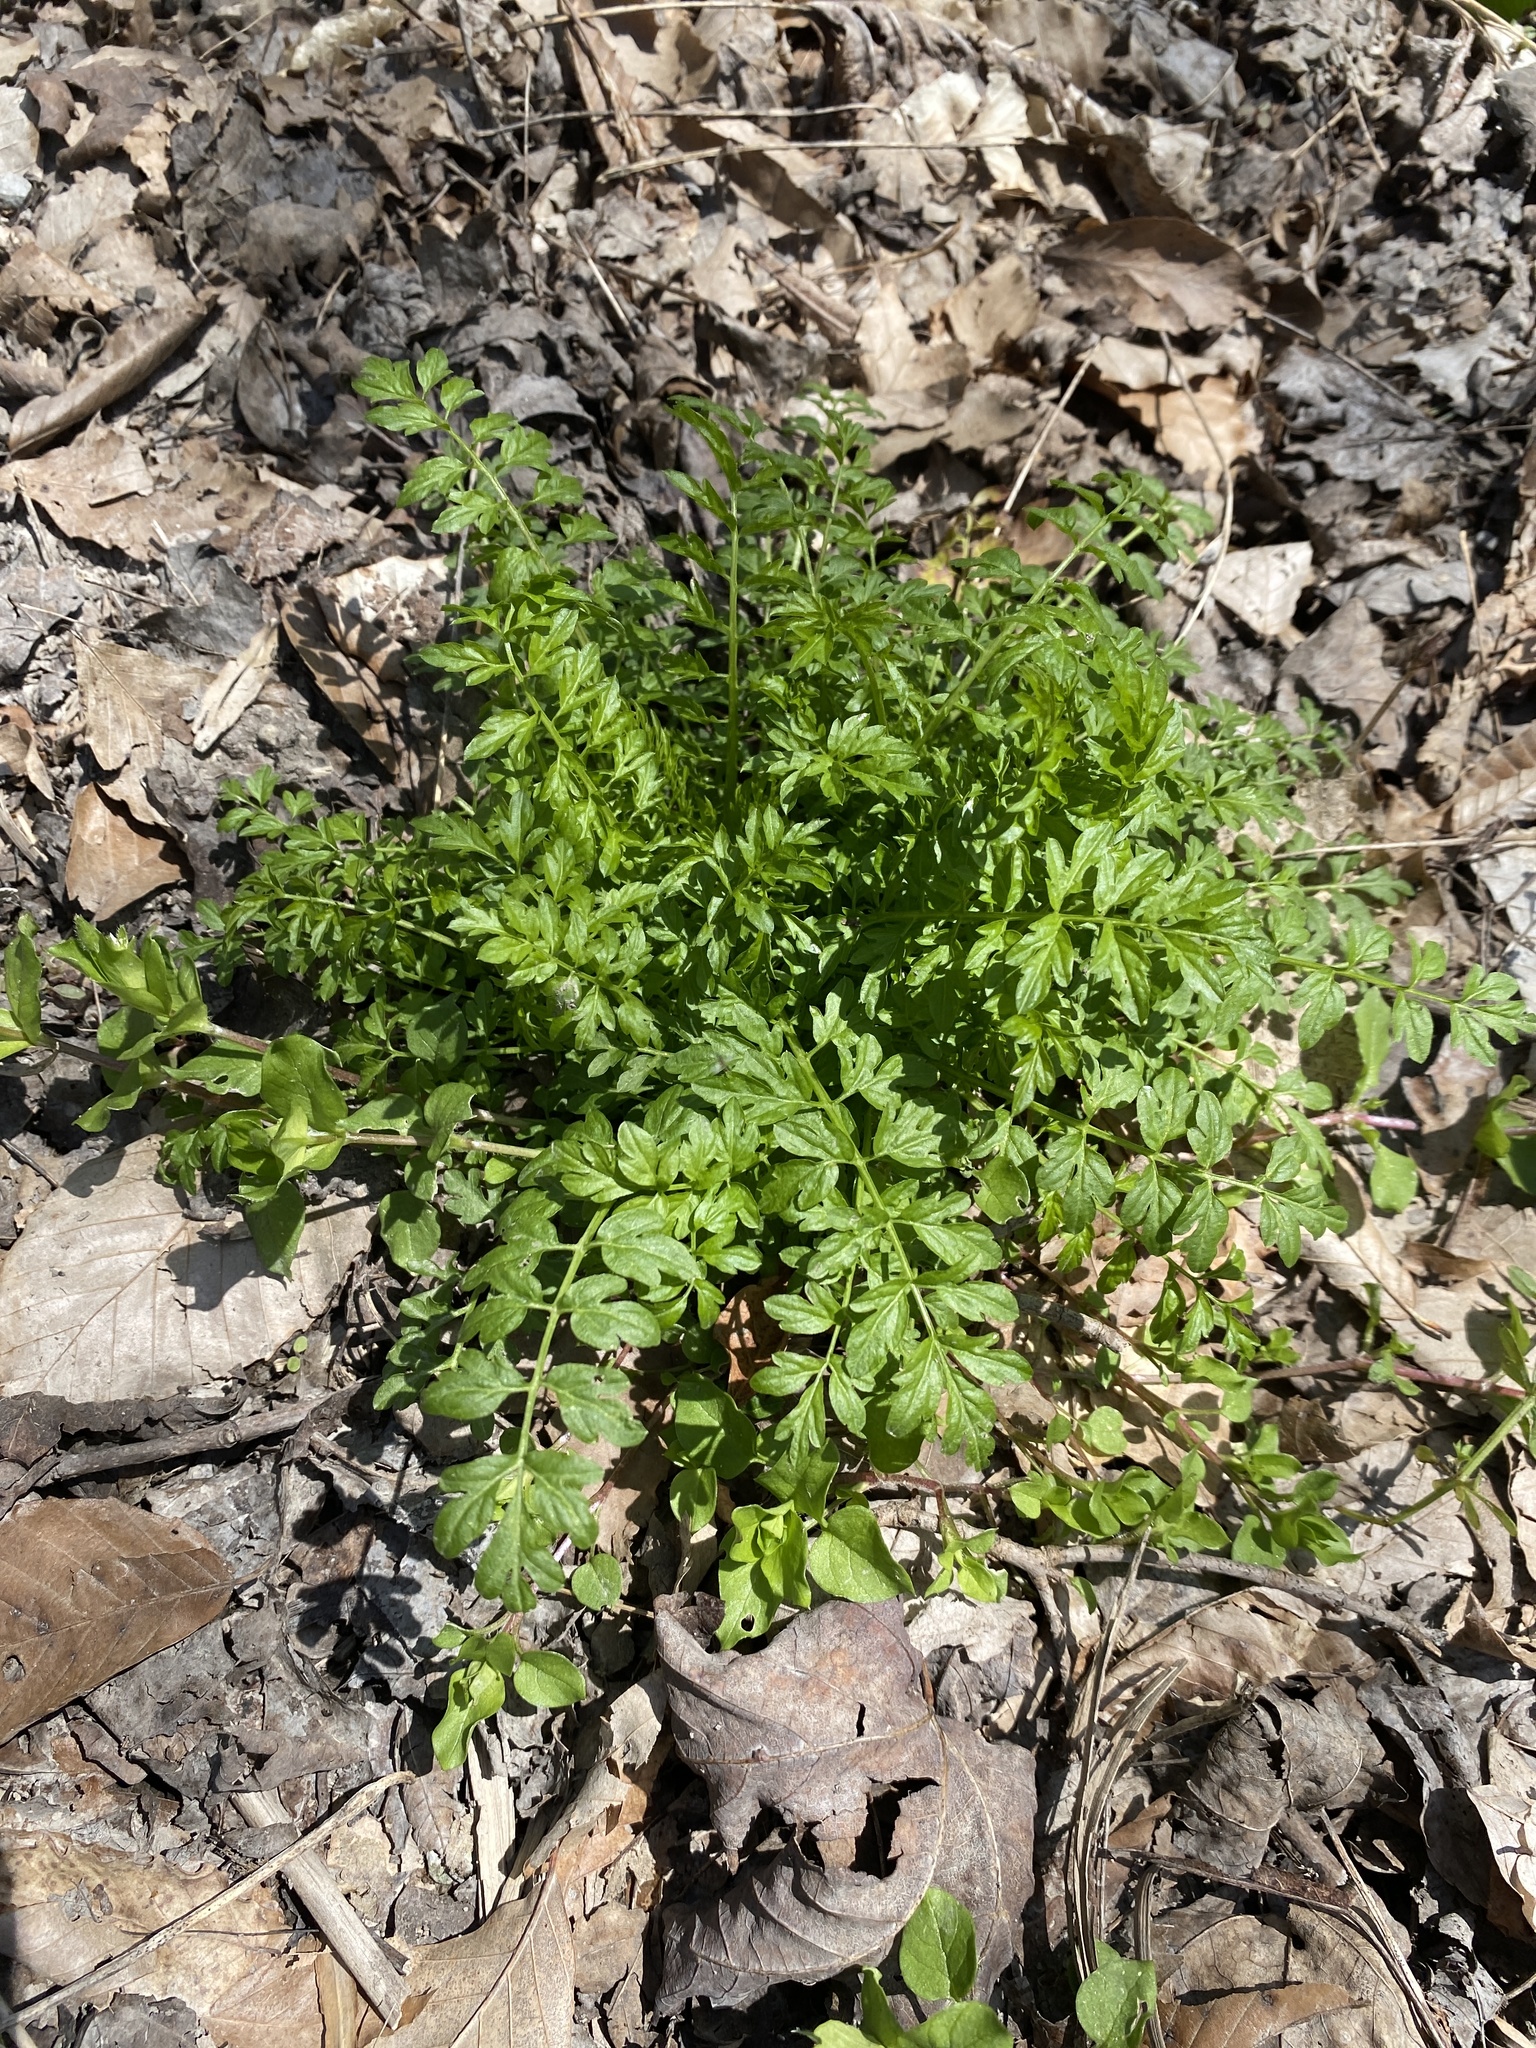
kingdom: Plantae
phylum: Tracheophyta
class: Magnoliopsida
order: Brassicales
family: Brassicaceae
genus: Cardamine
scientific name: Cardamine impatiens
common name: Narrow-leaved bitter-cress
